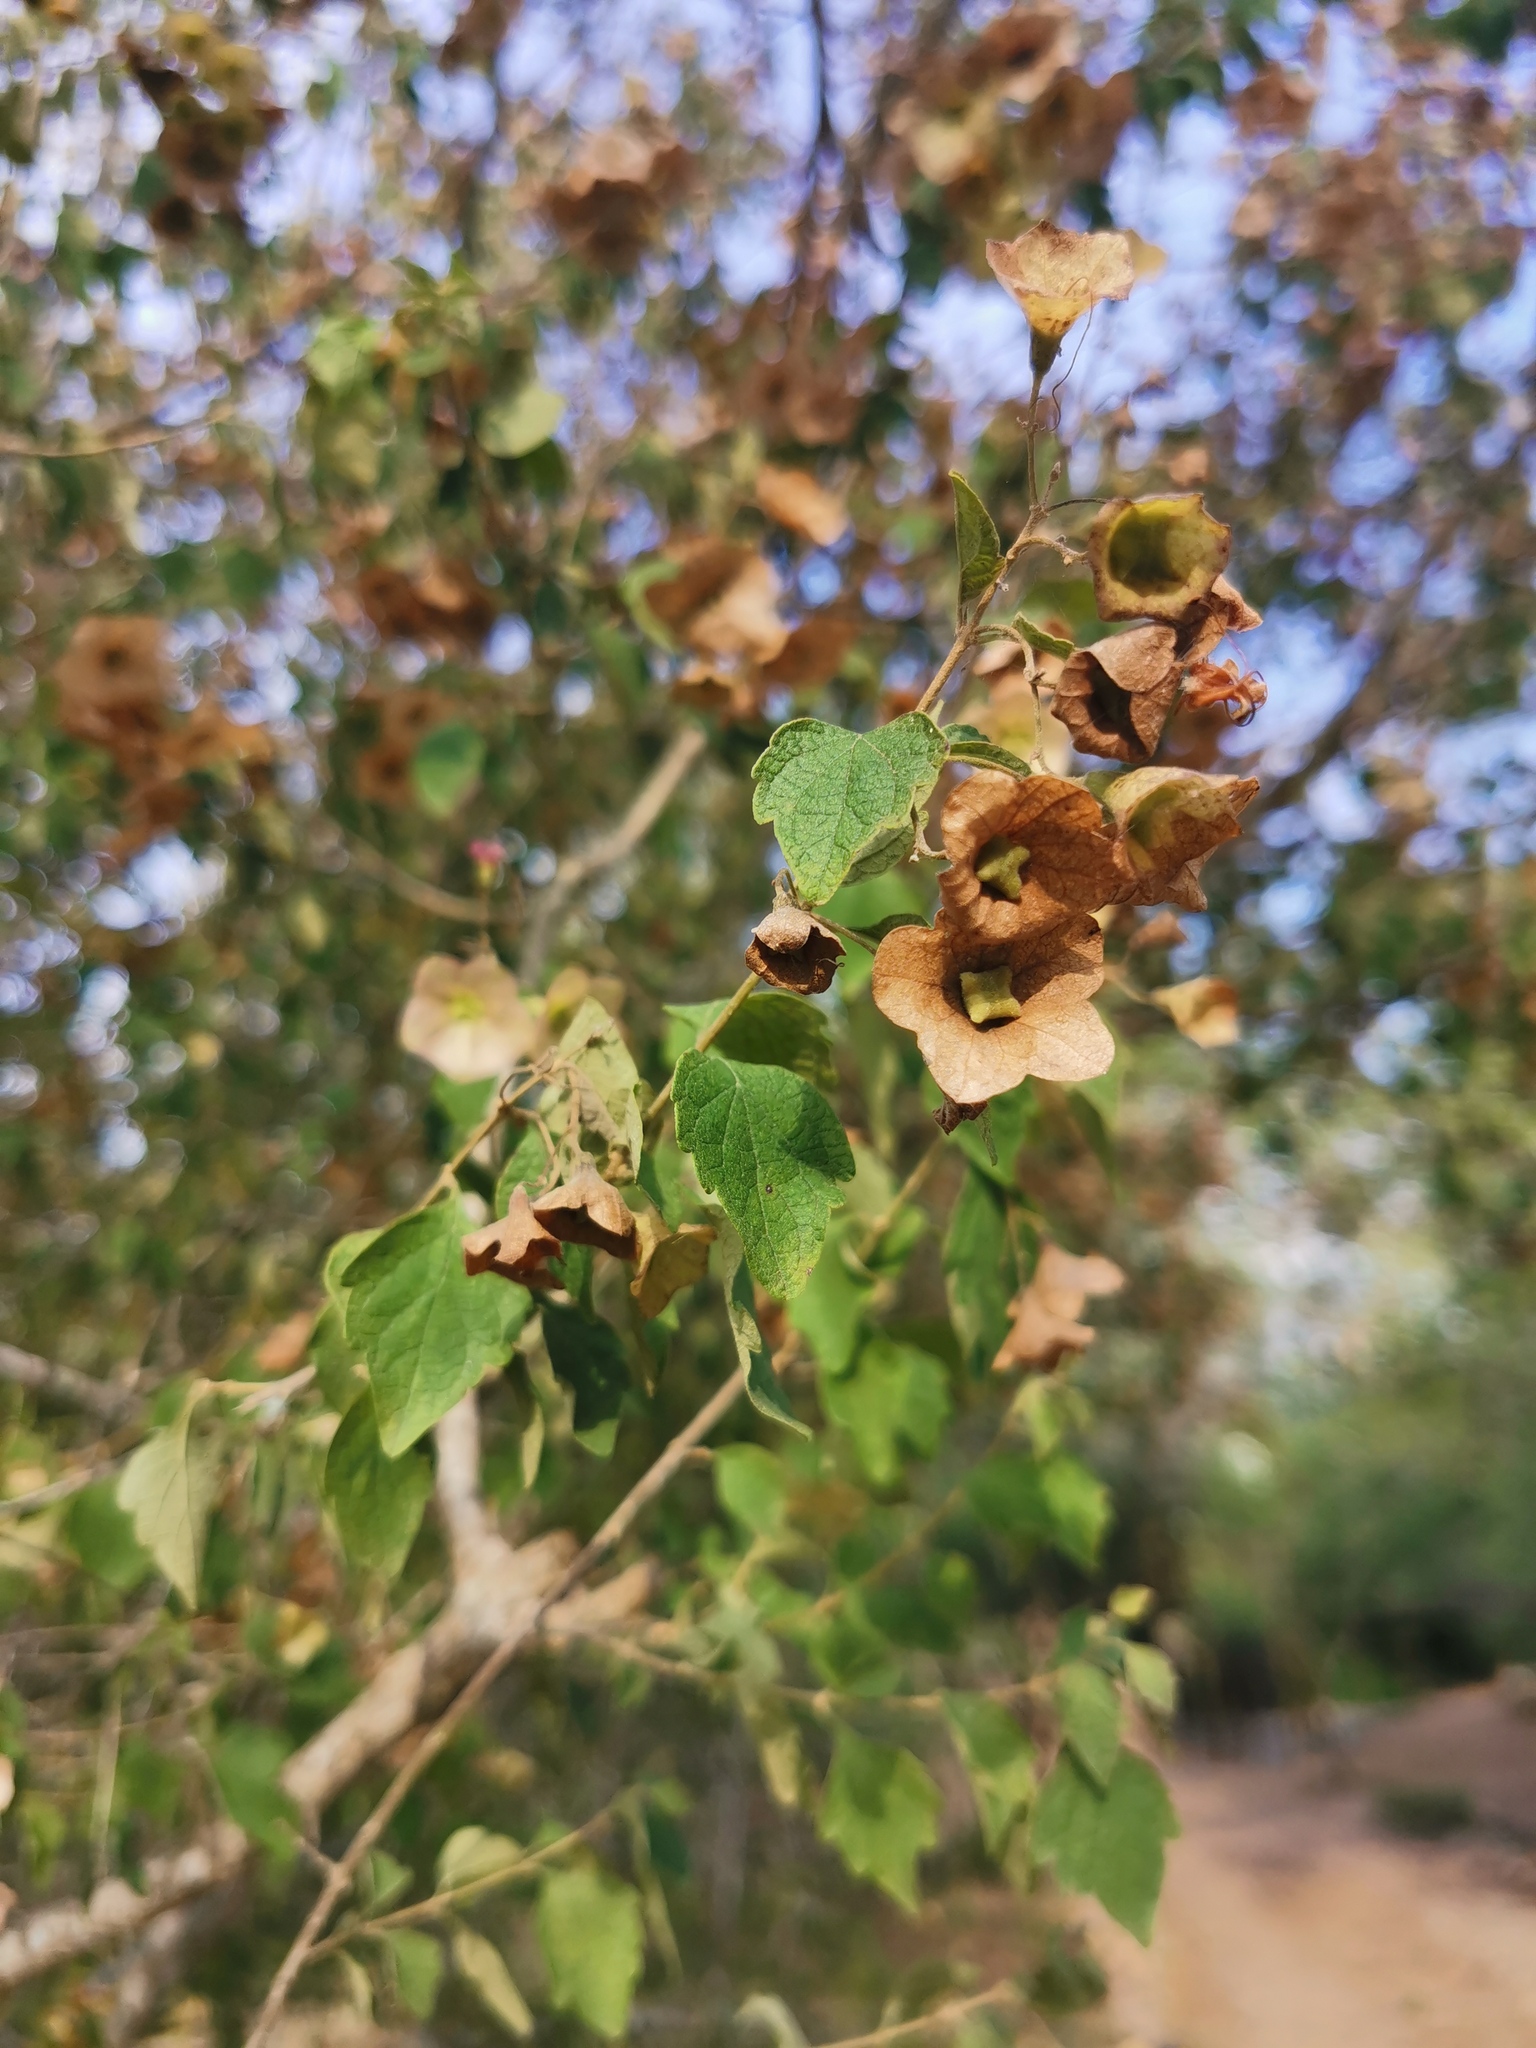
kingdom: Plantae
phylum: Tracheophyta
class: Magnoliopsida
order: Lamiales
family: Lamiaceae
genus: Karomia
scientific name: Karomia speciosa
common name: Southern chinese-hats
